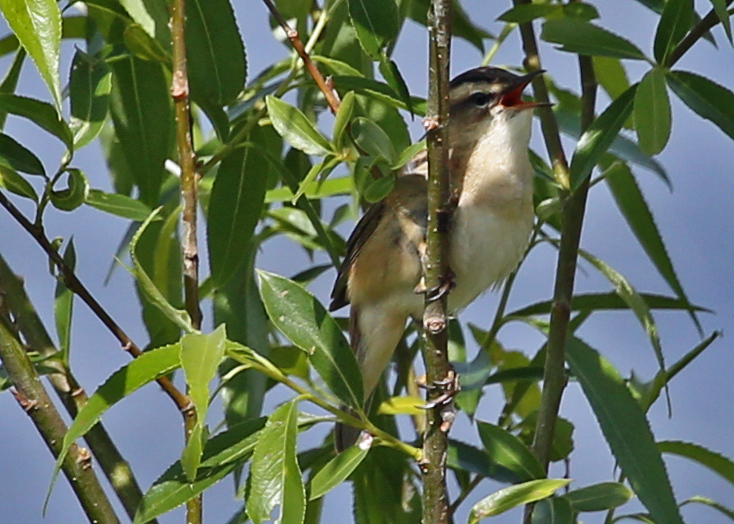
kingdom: Animalia
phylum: Chordata
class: Aves
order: Passeriformes
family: Acrocephalidae
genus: Acrocephalus
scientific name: Acrocephalus schoenobaenus
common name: Sedge warbler
